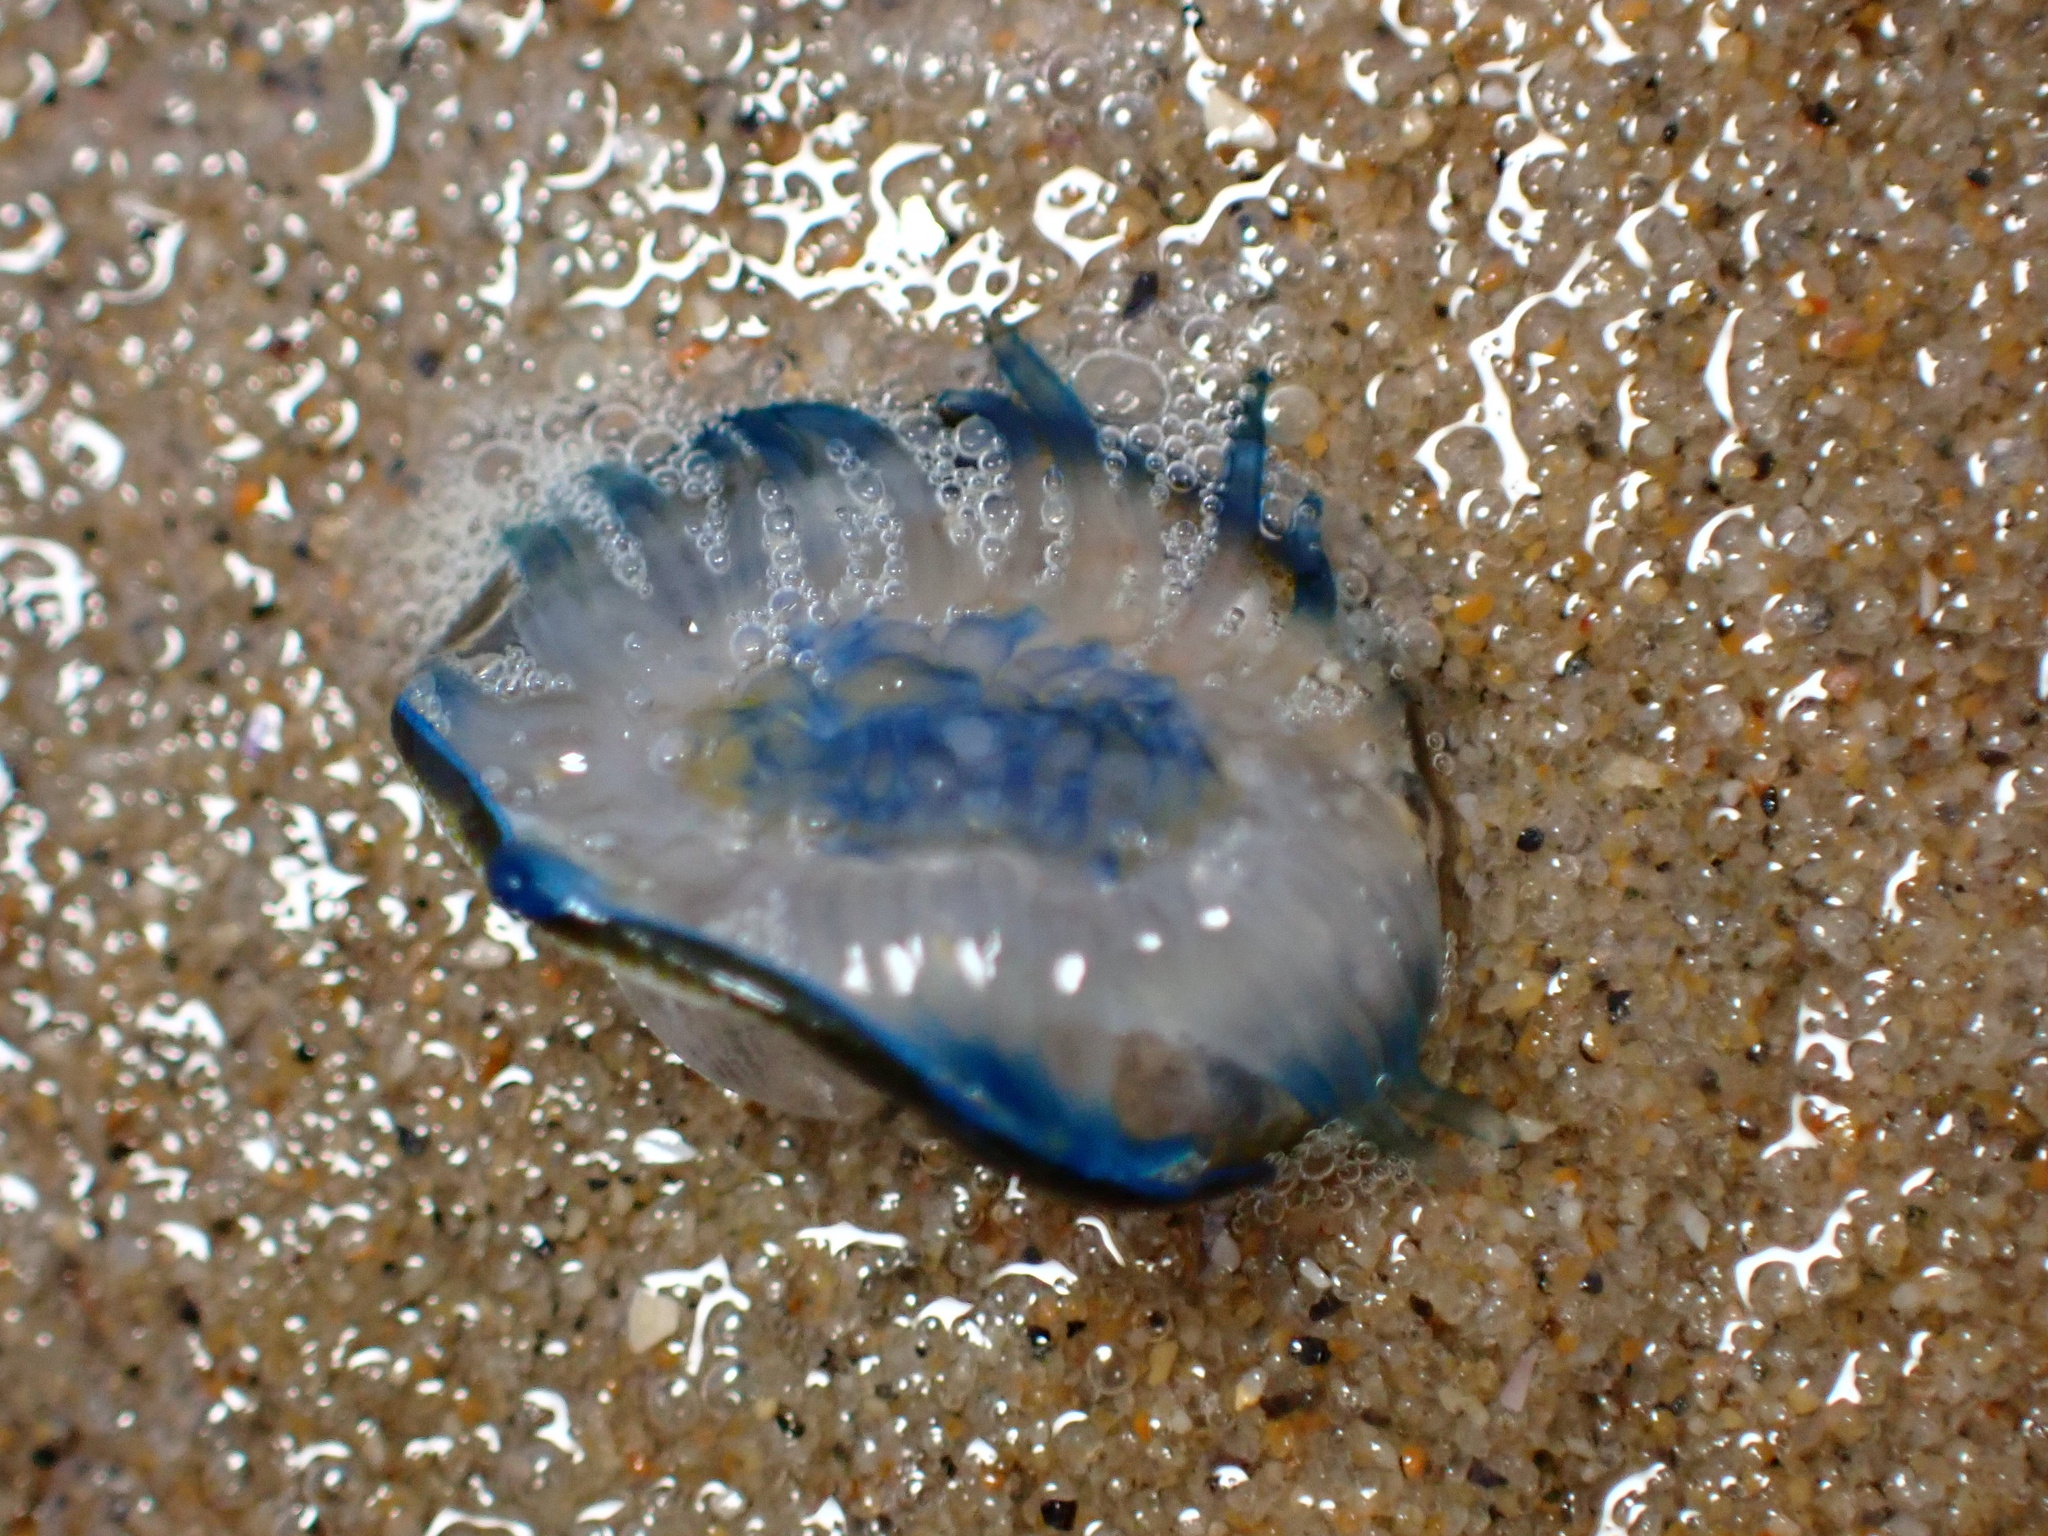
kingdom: Animalia
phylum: Cnidaria
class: Hydrozoa
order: Anthoathecata
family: Porpitidae
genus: Velella
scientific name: Velella velella
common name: By-the-wind-sailor
